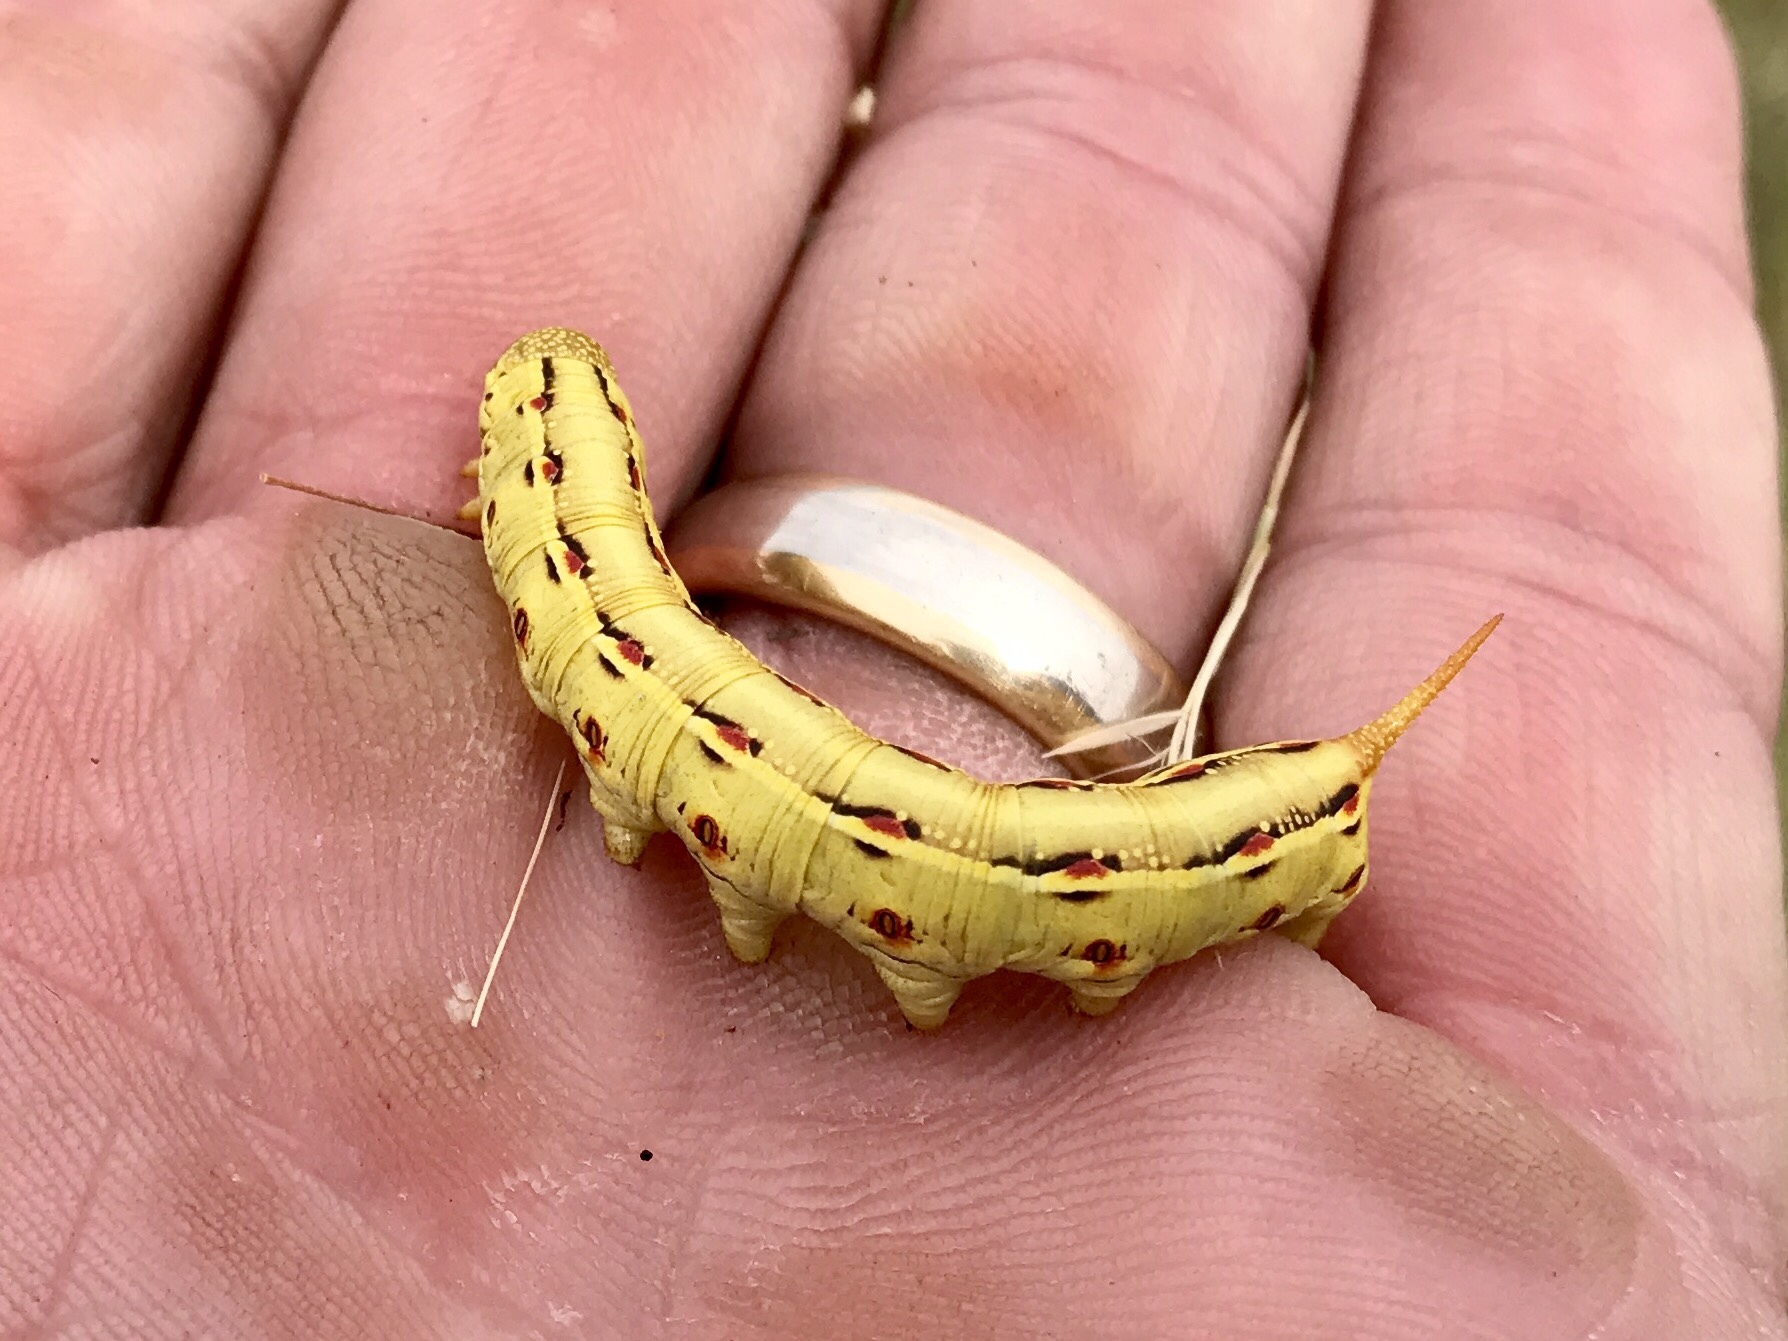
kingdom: Animalia
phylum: Arthropoda
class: Insecta
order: Lepidoptera
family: Sphingidae
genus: Hyles
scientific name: Hyles lineata
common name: White-lined sphinx
